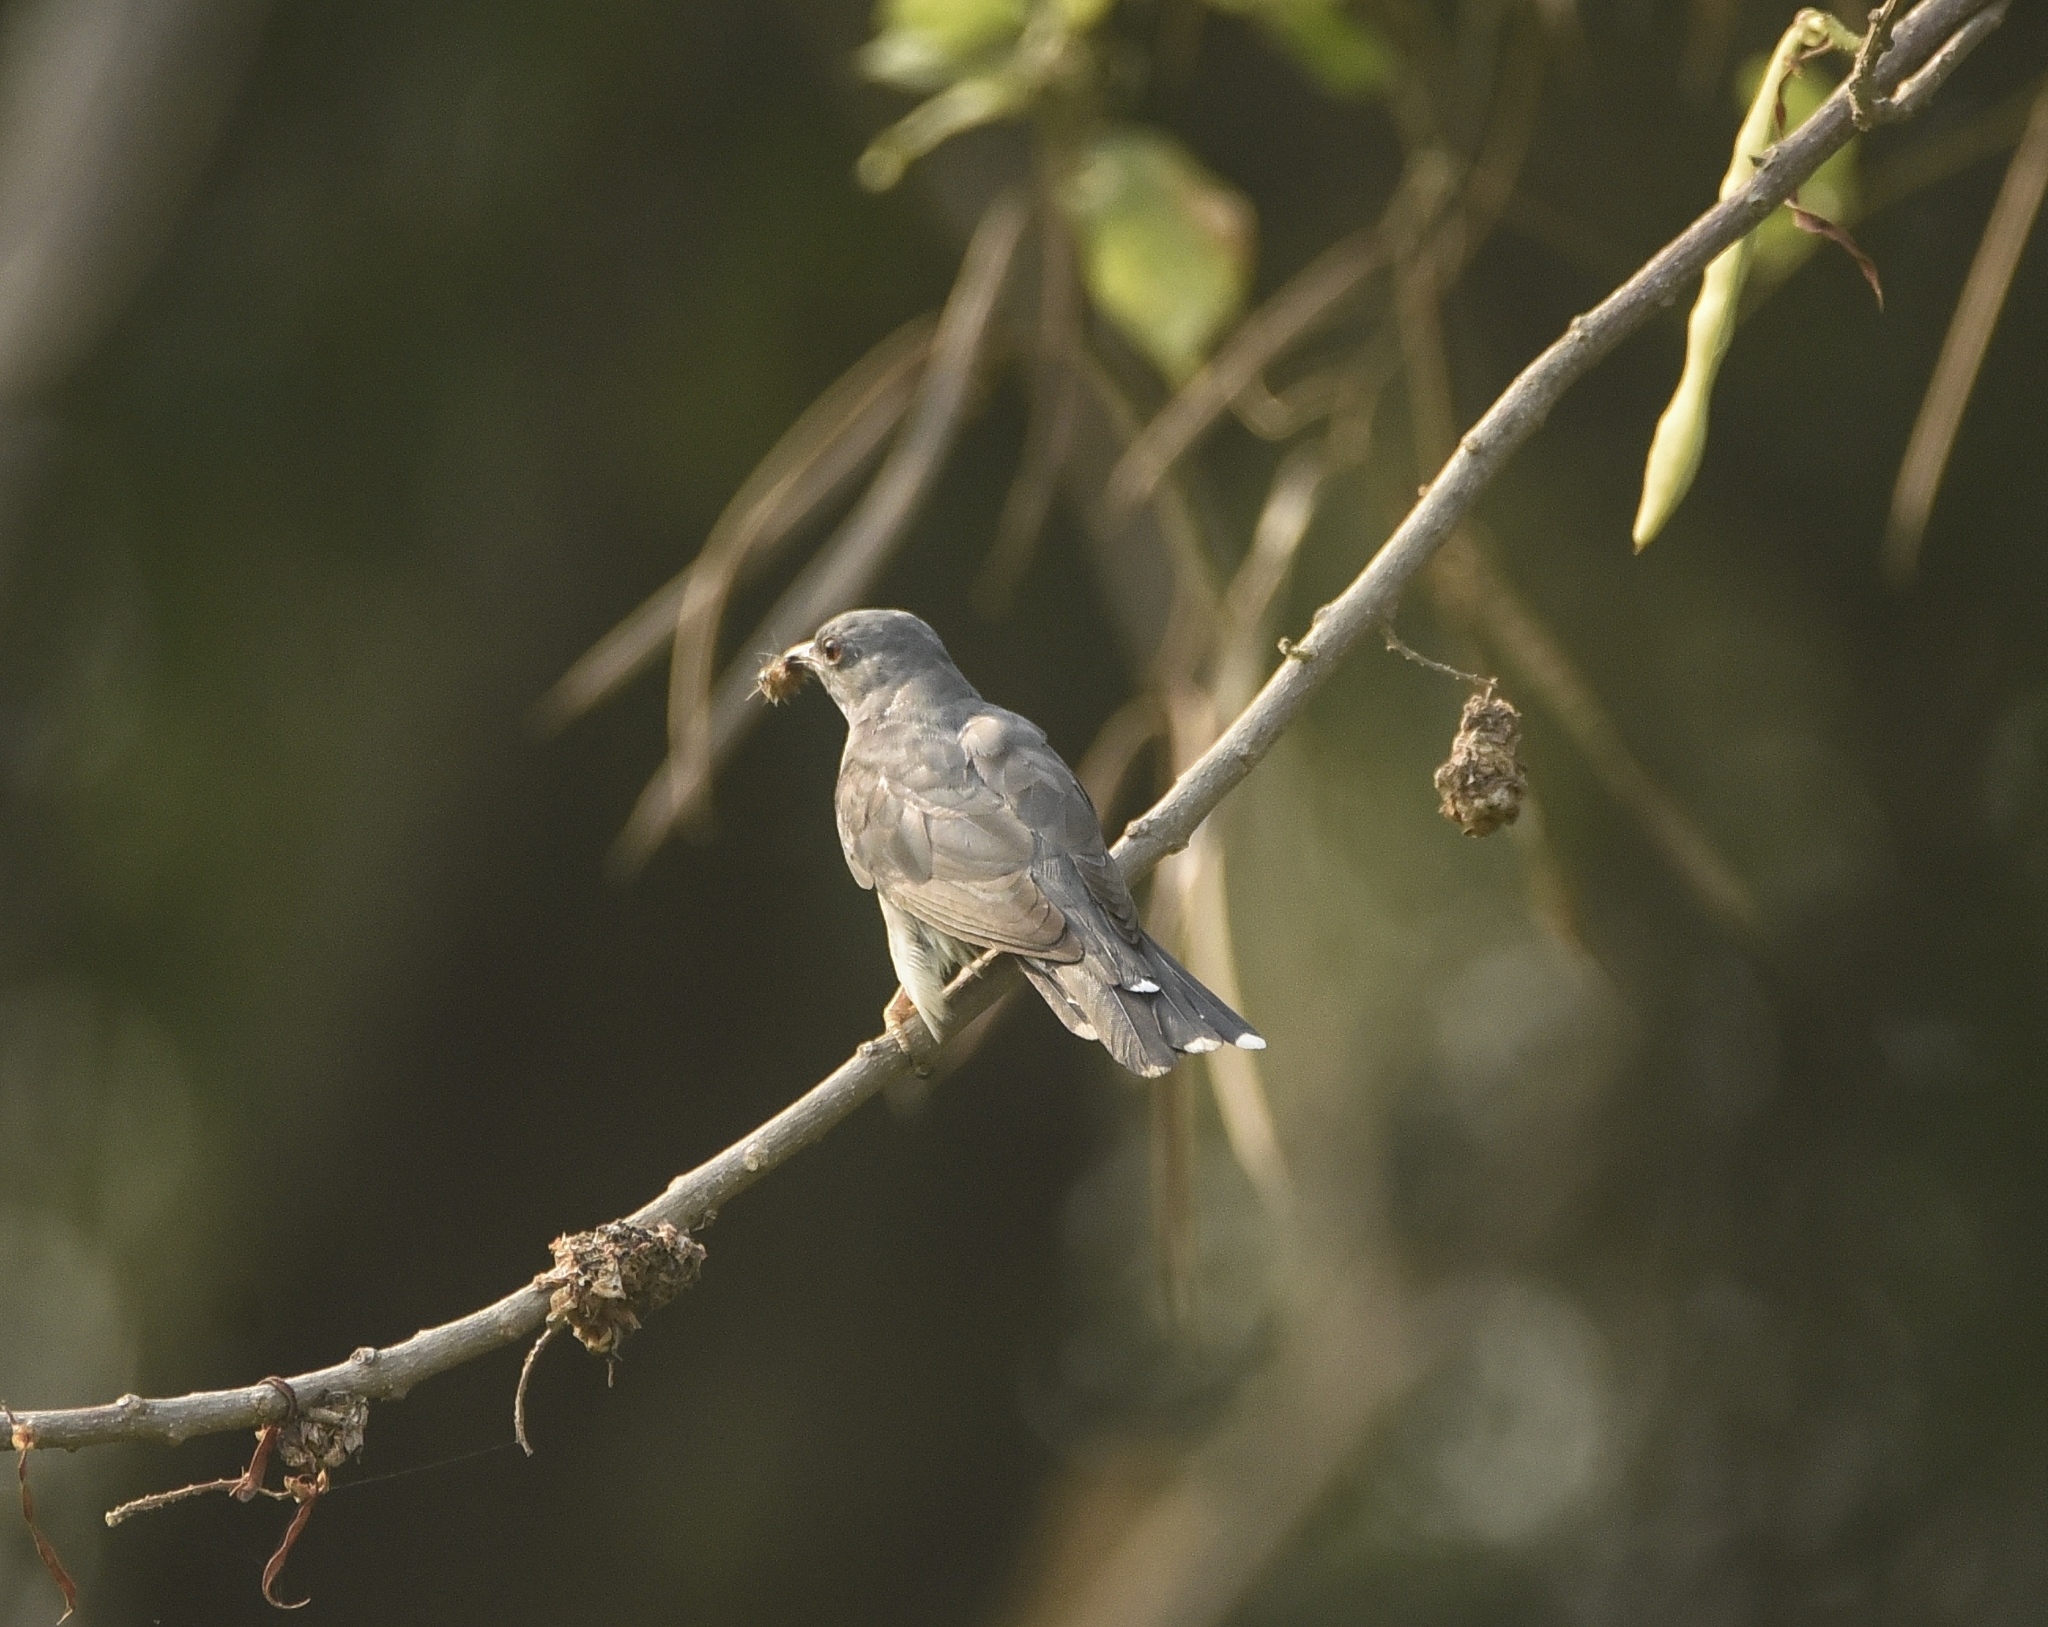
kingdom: Animalia
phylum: Chordata
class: Aves
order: Cuculiformes
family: Cuculidae
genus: Cacomantis
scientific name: Cacomantis passerinus
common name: Grey-bellied cuckoo
